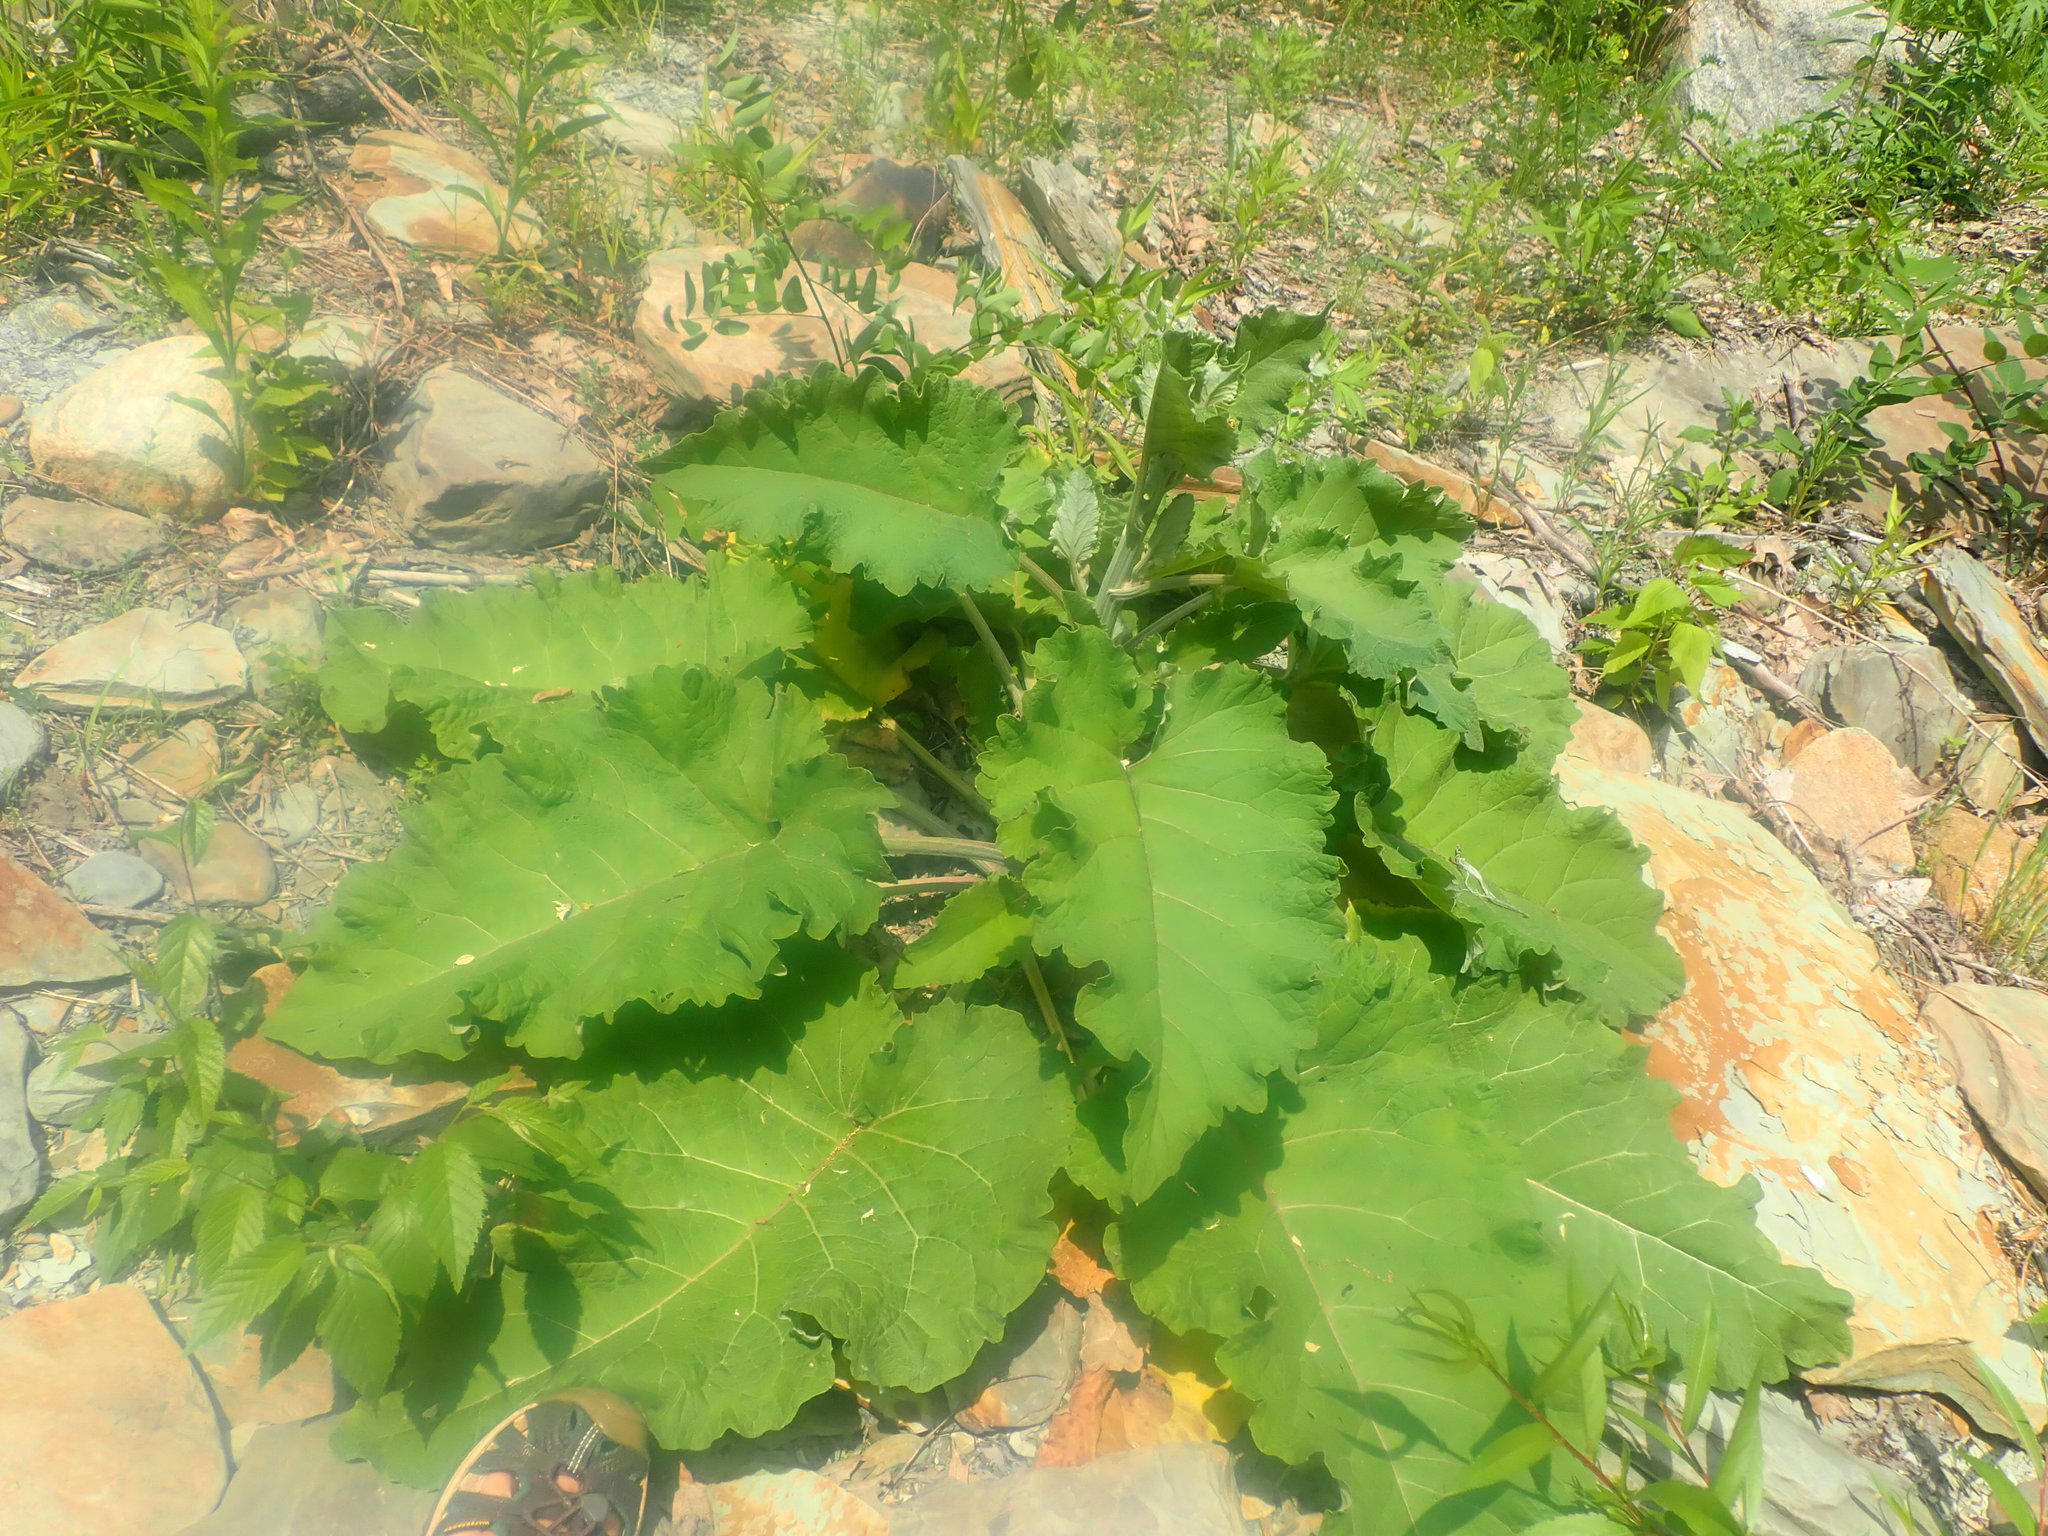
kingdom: Plantae
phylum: Tracheophyta
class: Magnoliopsida
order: Asterales
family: Asteraceae
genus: Arctium
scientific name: Arctium
